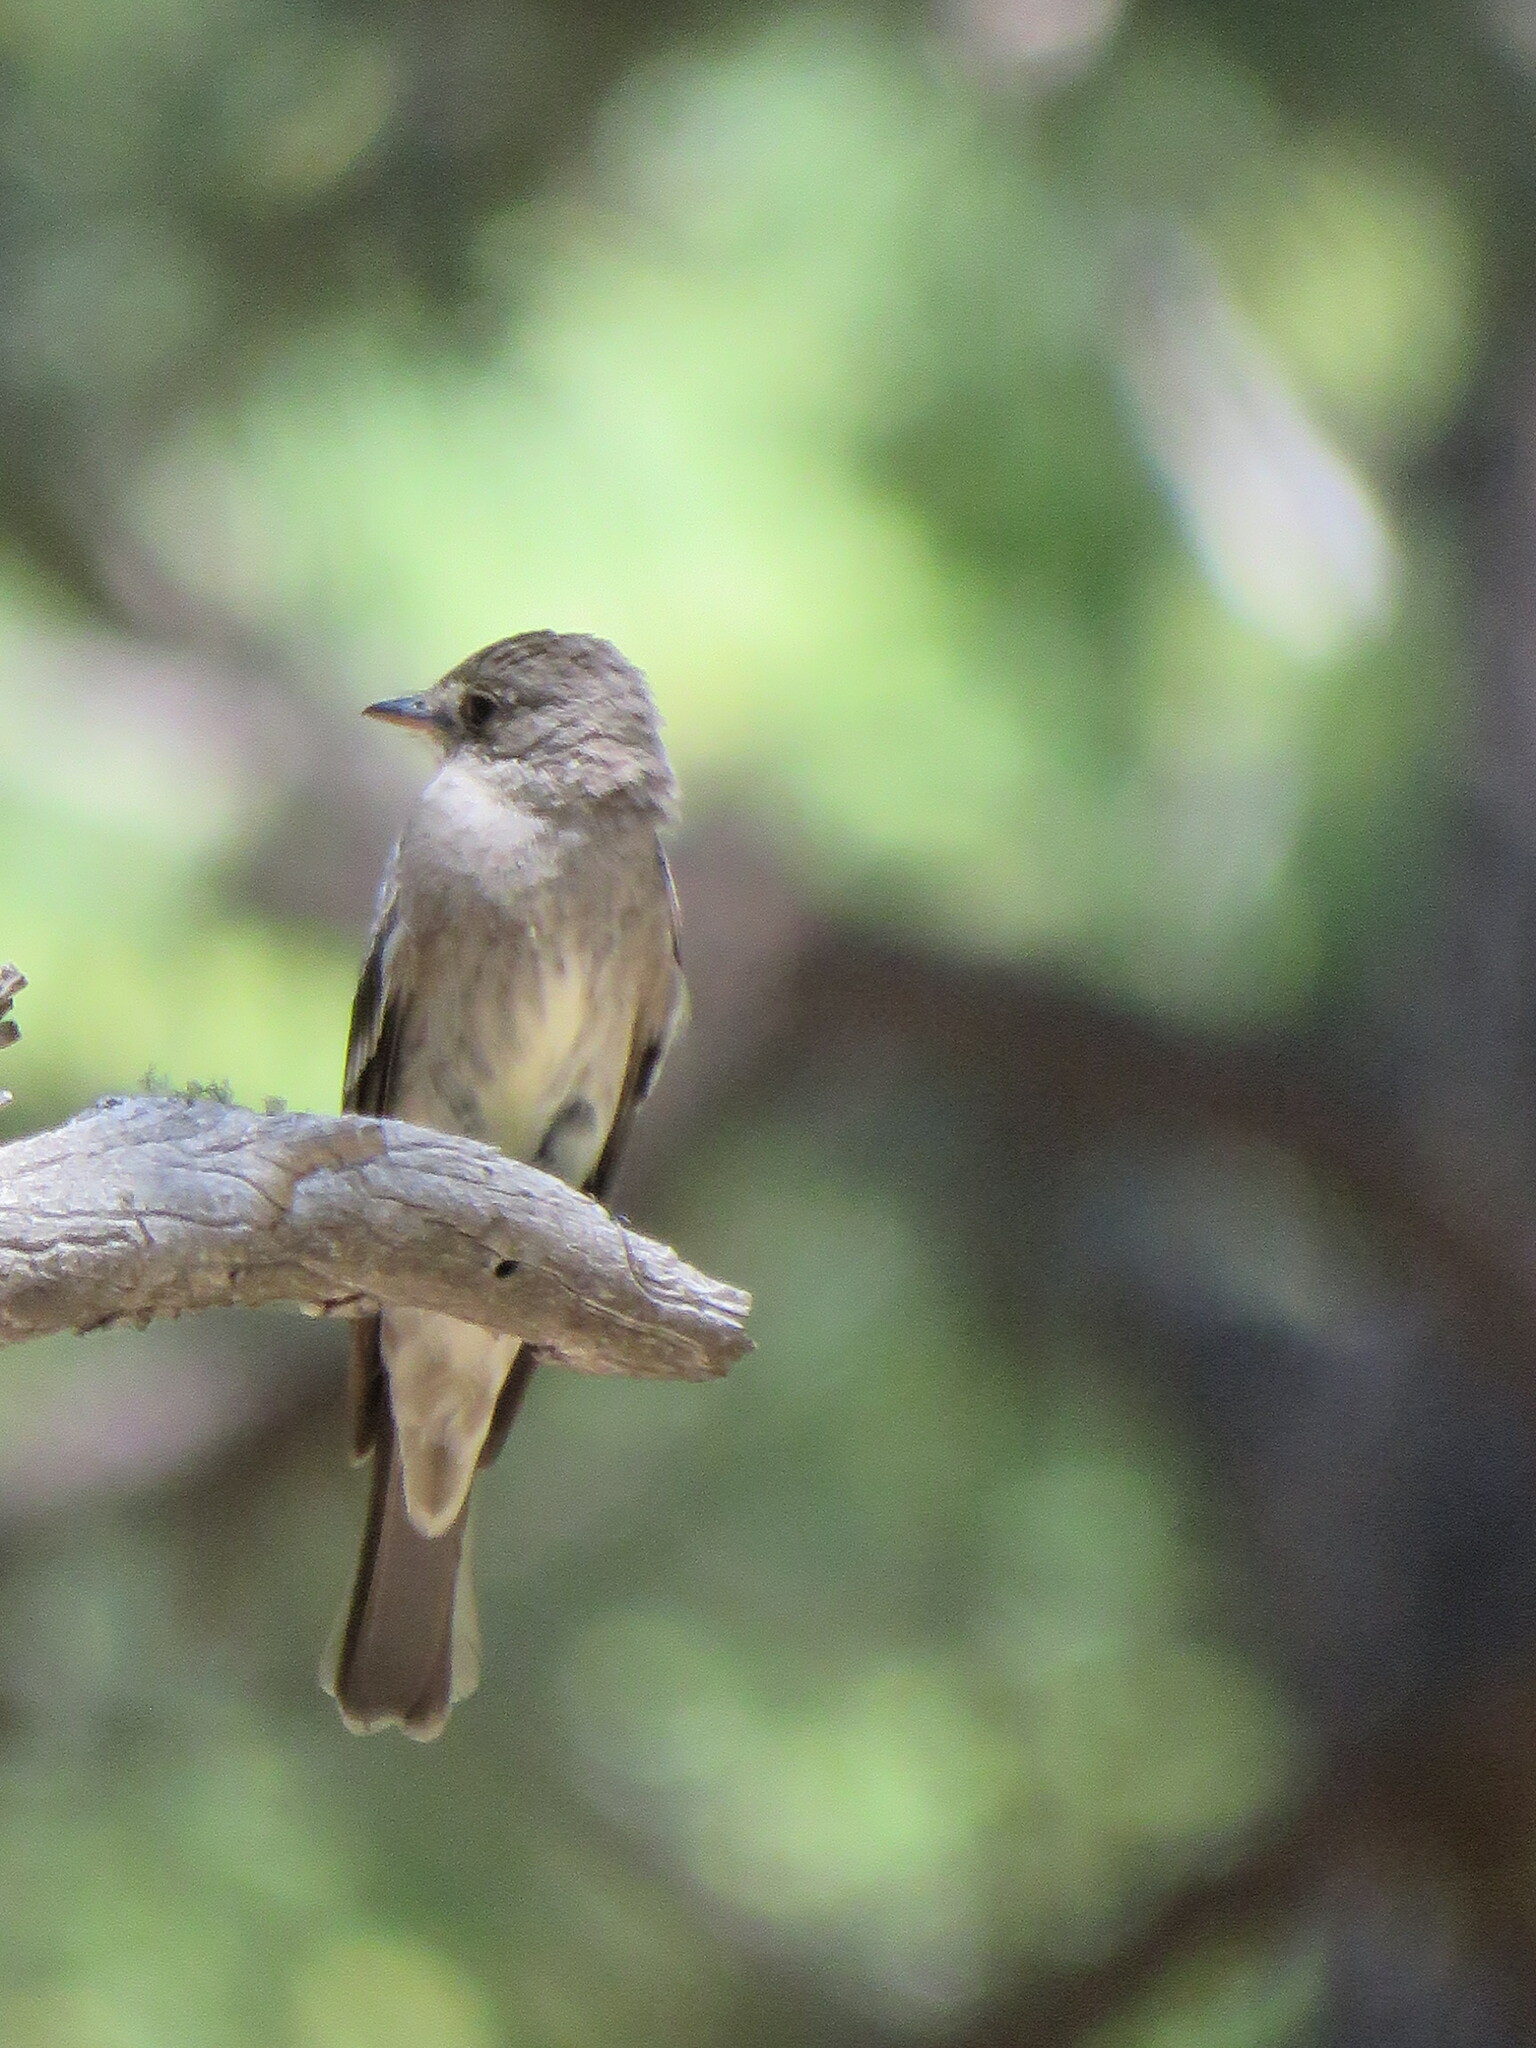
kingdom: Animalia
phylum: Chordata
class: Aves
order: Passeriformes
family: Tyrannidae
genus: Contopus
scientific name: Contopus sordidulus
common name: Western wood-pewee
